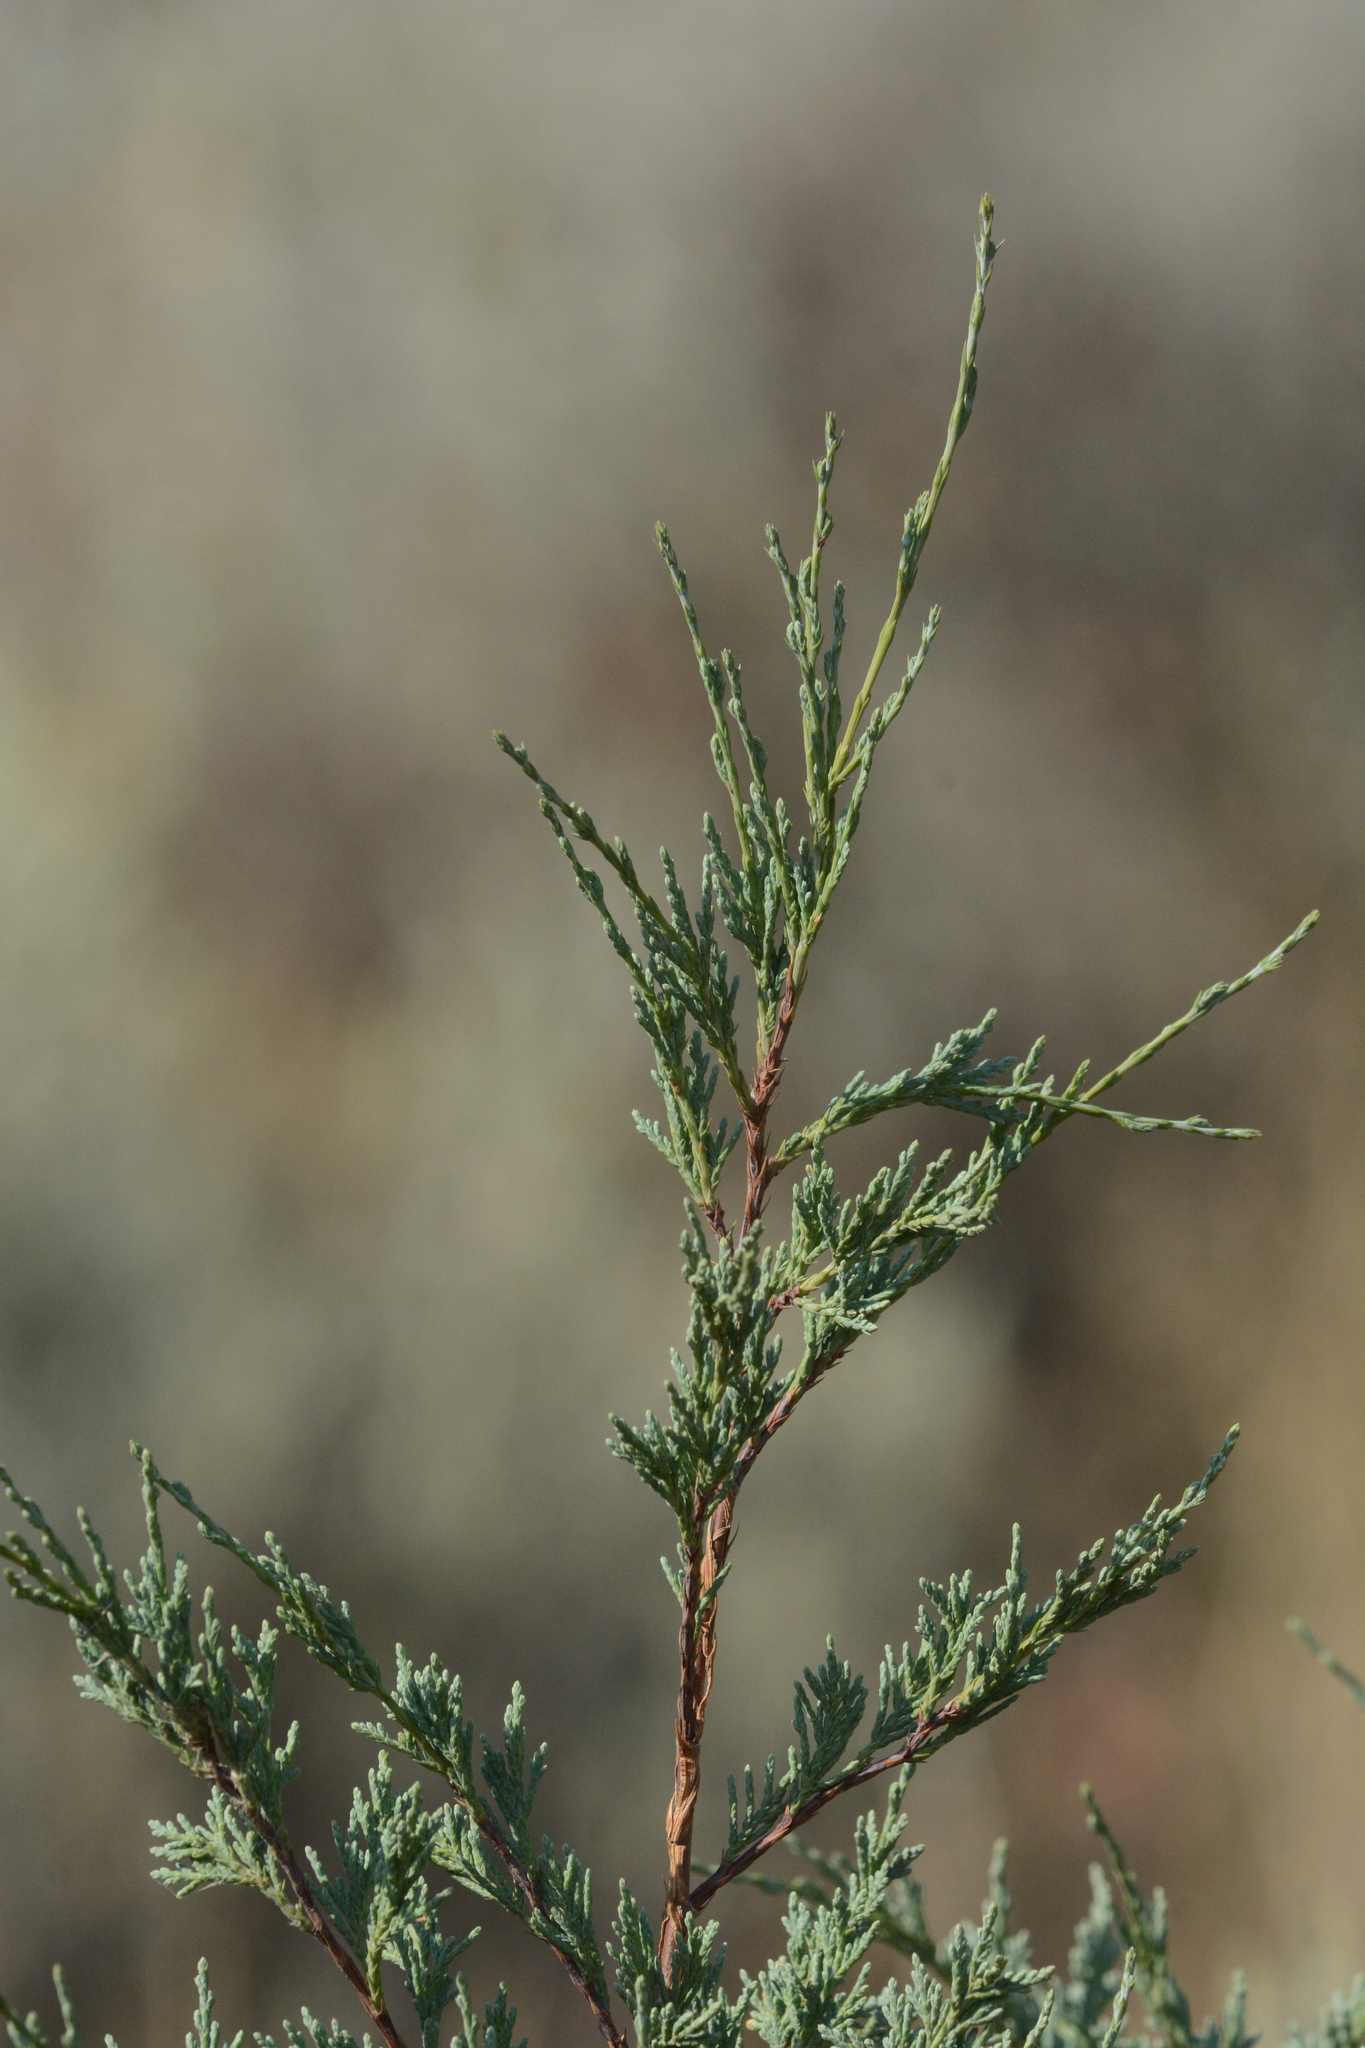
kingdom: Plantae
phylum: Tracheophyta
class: Pinopsida
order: Pinales
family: Cupressaceae
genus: Juniperus
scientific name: Juniperus scopulorum
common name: Rocky mountain juniper
